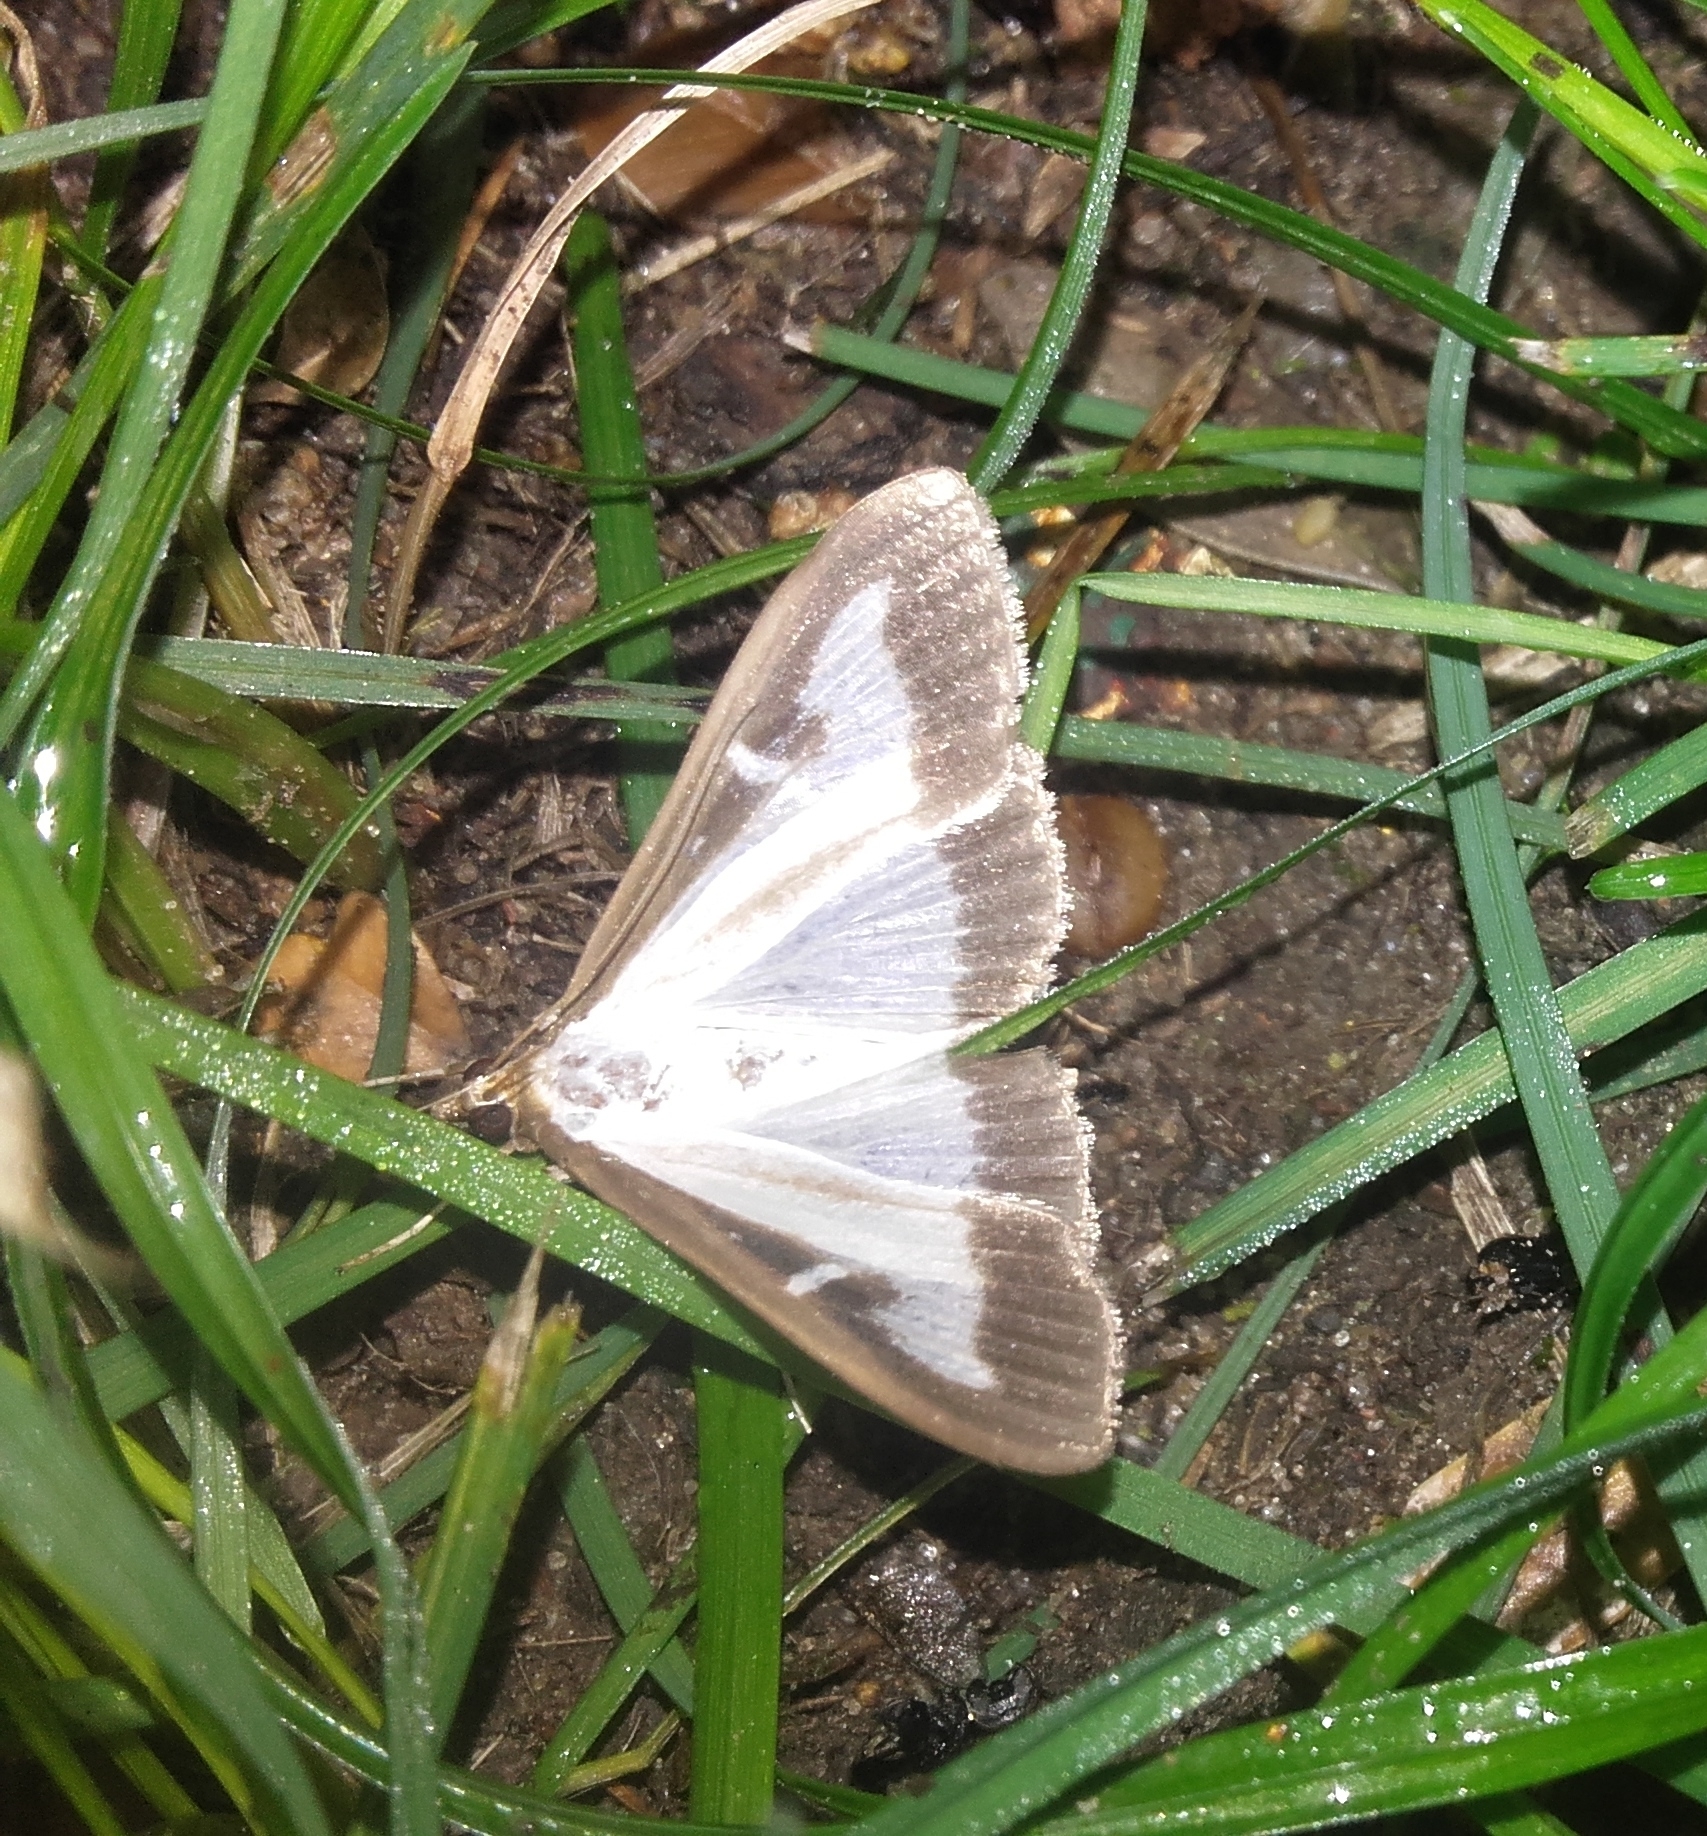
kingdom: Animalia
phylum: Arthropoda
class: Insecta
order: Lepidoptera
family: Crambidae
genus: Cydalima
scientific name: Cydalima perspectalis
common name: Box tree moth
